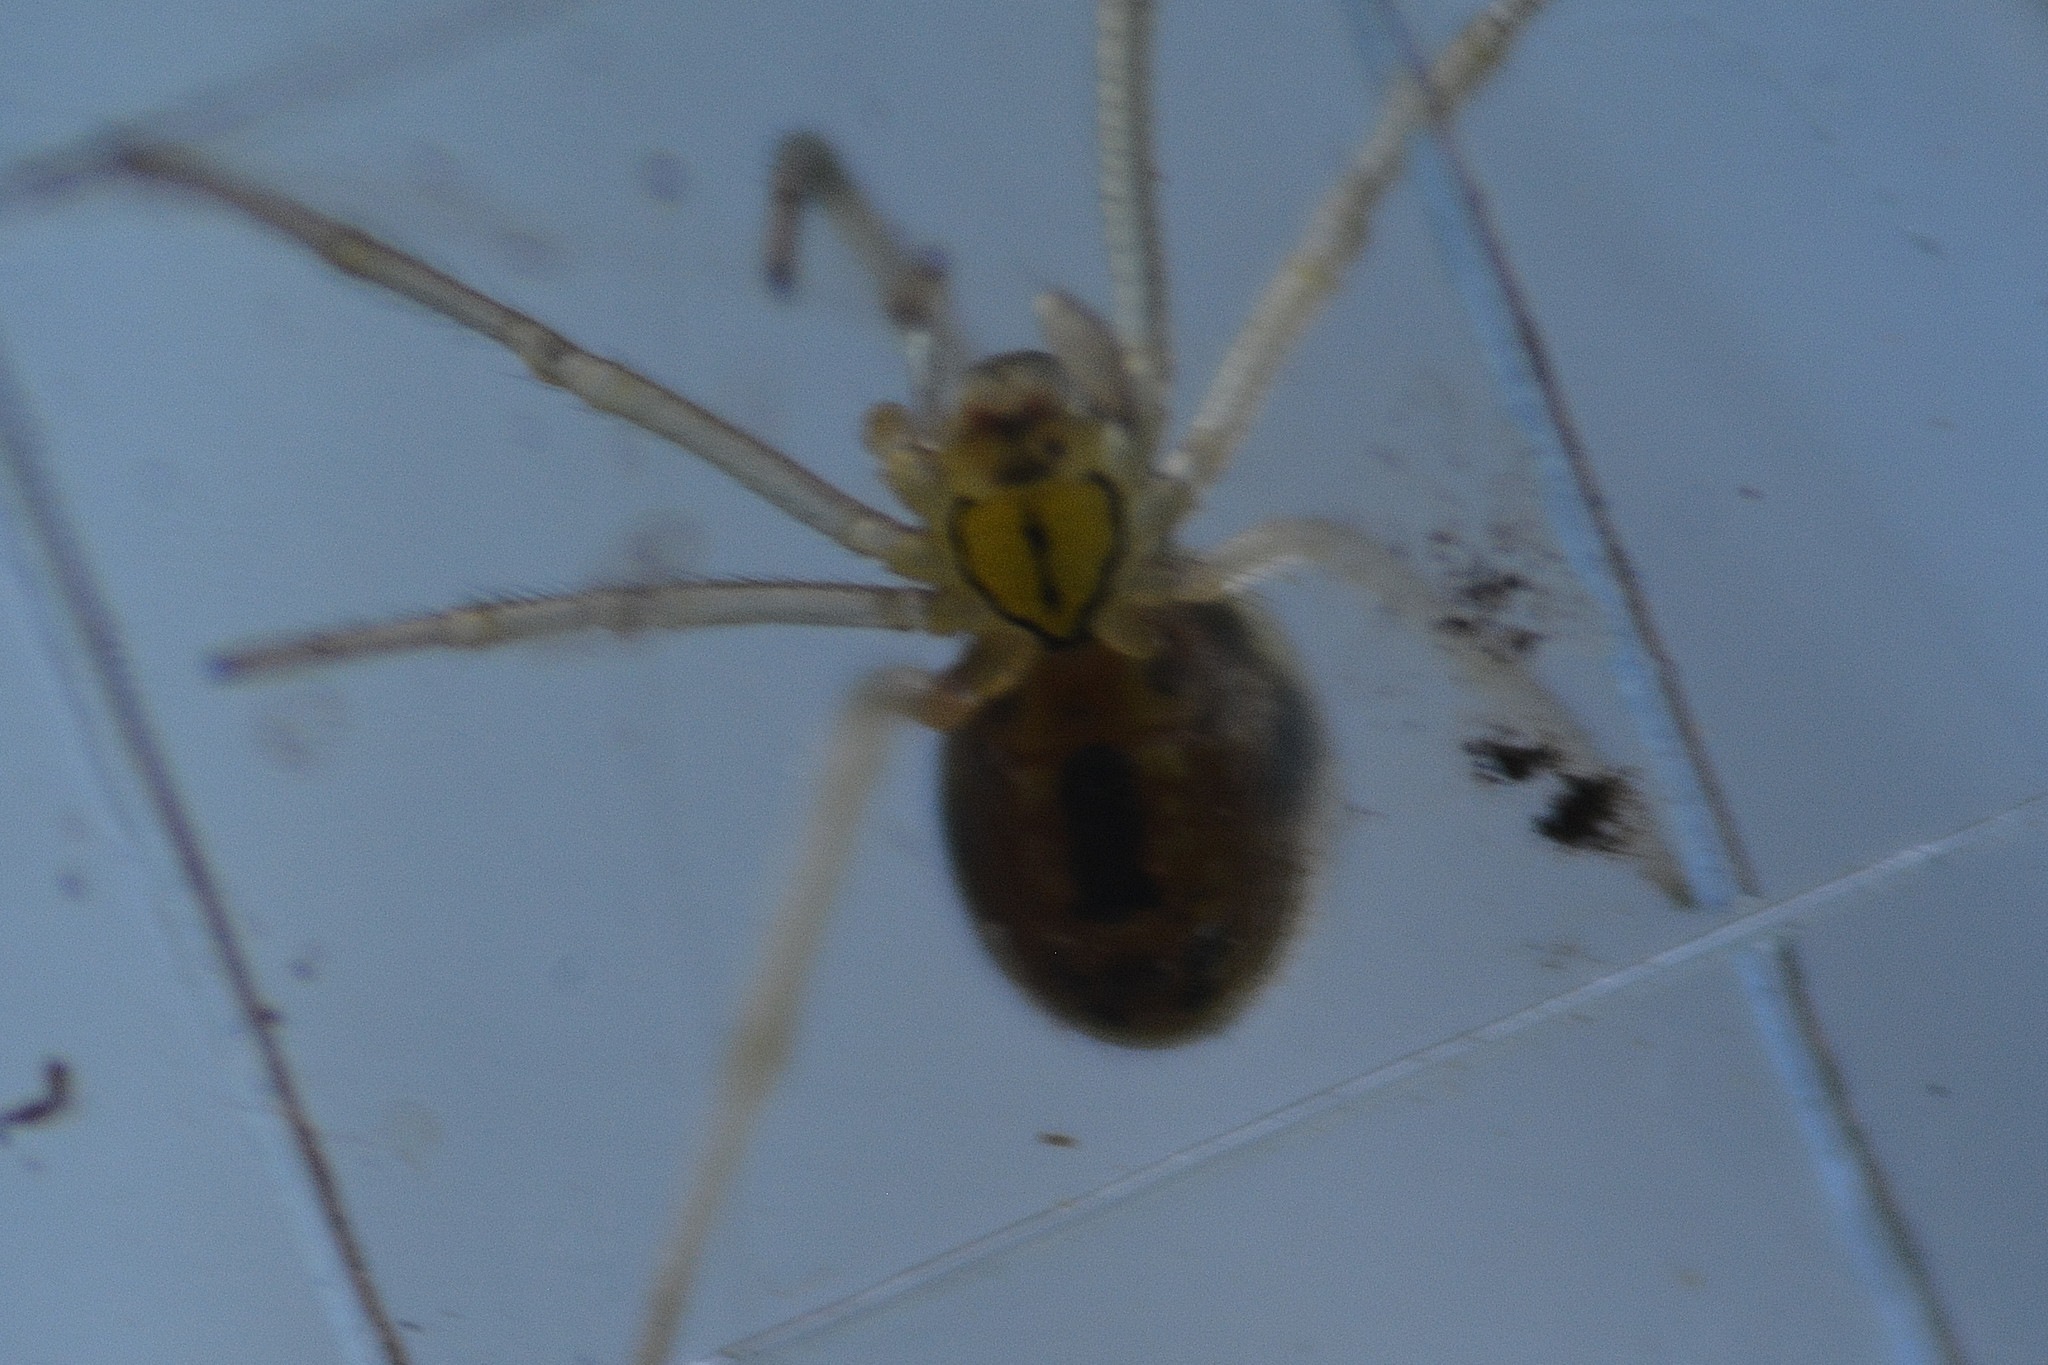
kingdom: Animalia
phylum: Arthropoda
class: Arachnida
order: Araneae
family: Theridiidae
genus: Enoplognatha
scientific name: Enoplognatha
